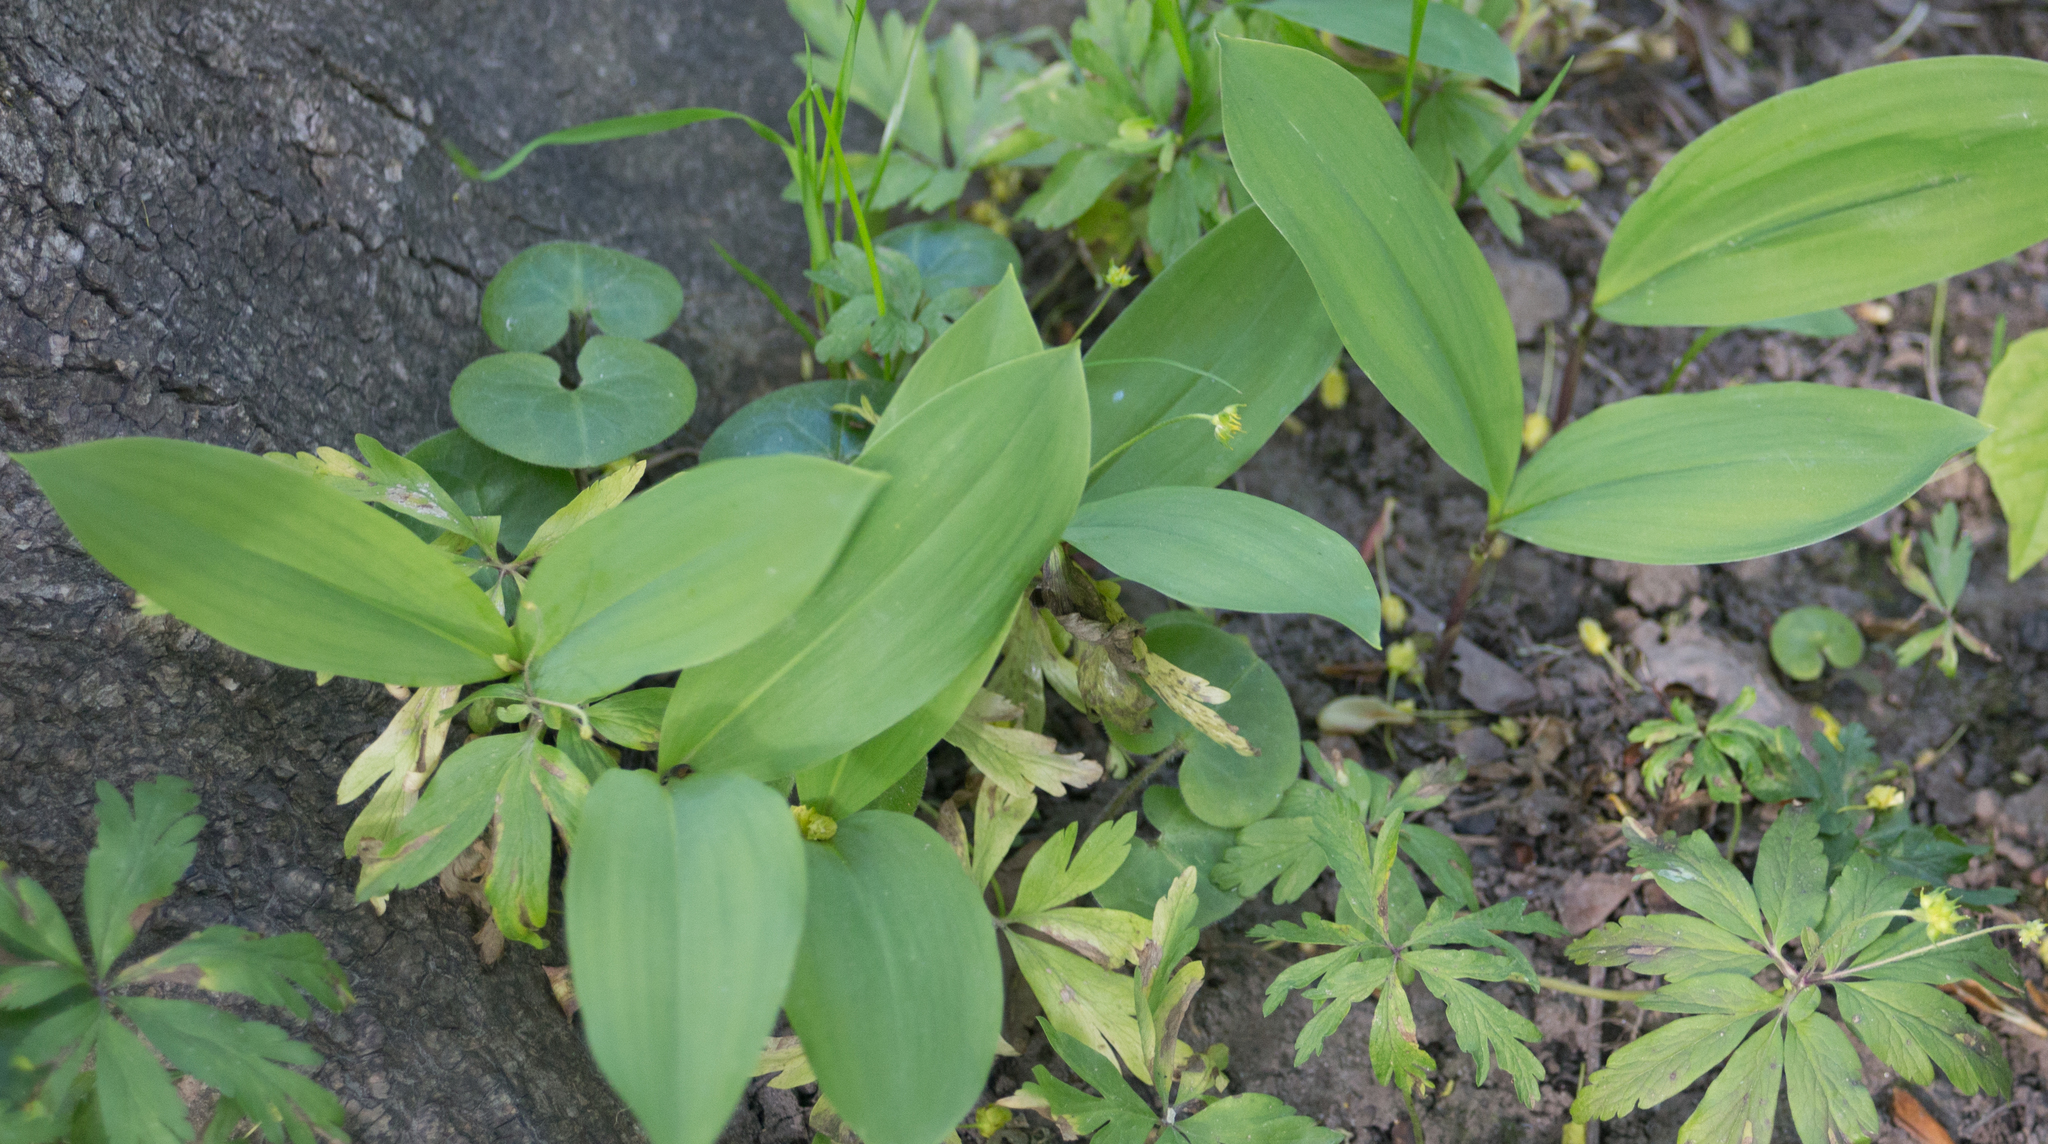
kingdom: Plantae
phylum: Tracheophyta
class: Liliopsida
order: Asparagales
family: Asparagaceae
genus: Convallaria
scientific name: Convallaria majalis
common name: Lily-of-the-valley
